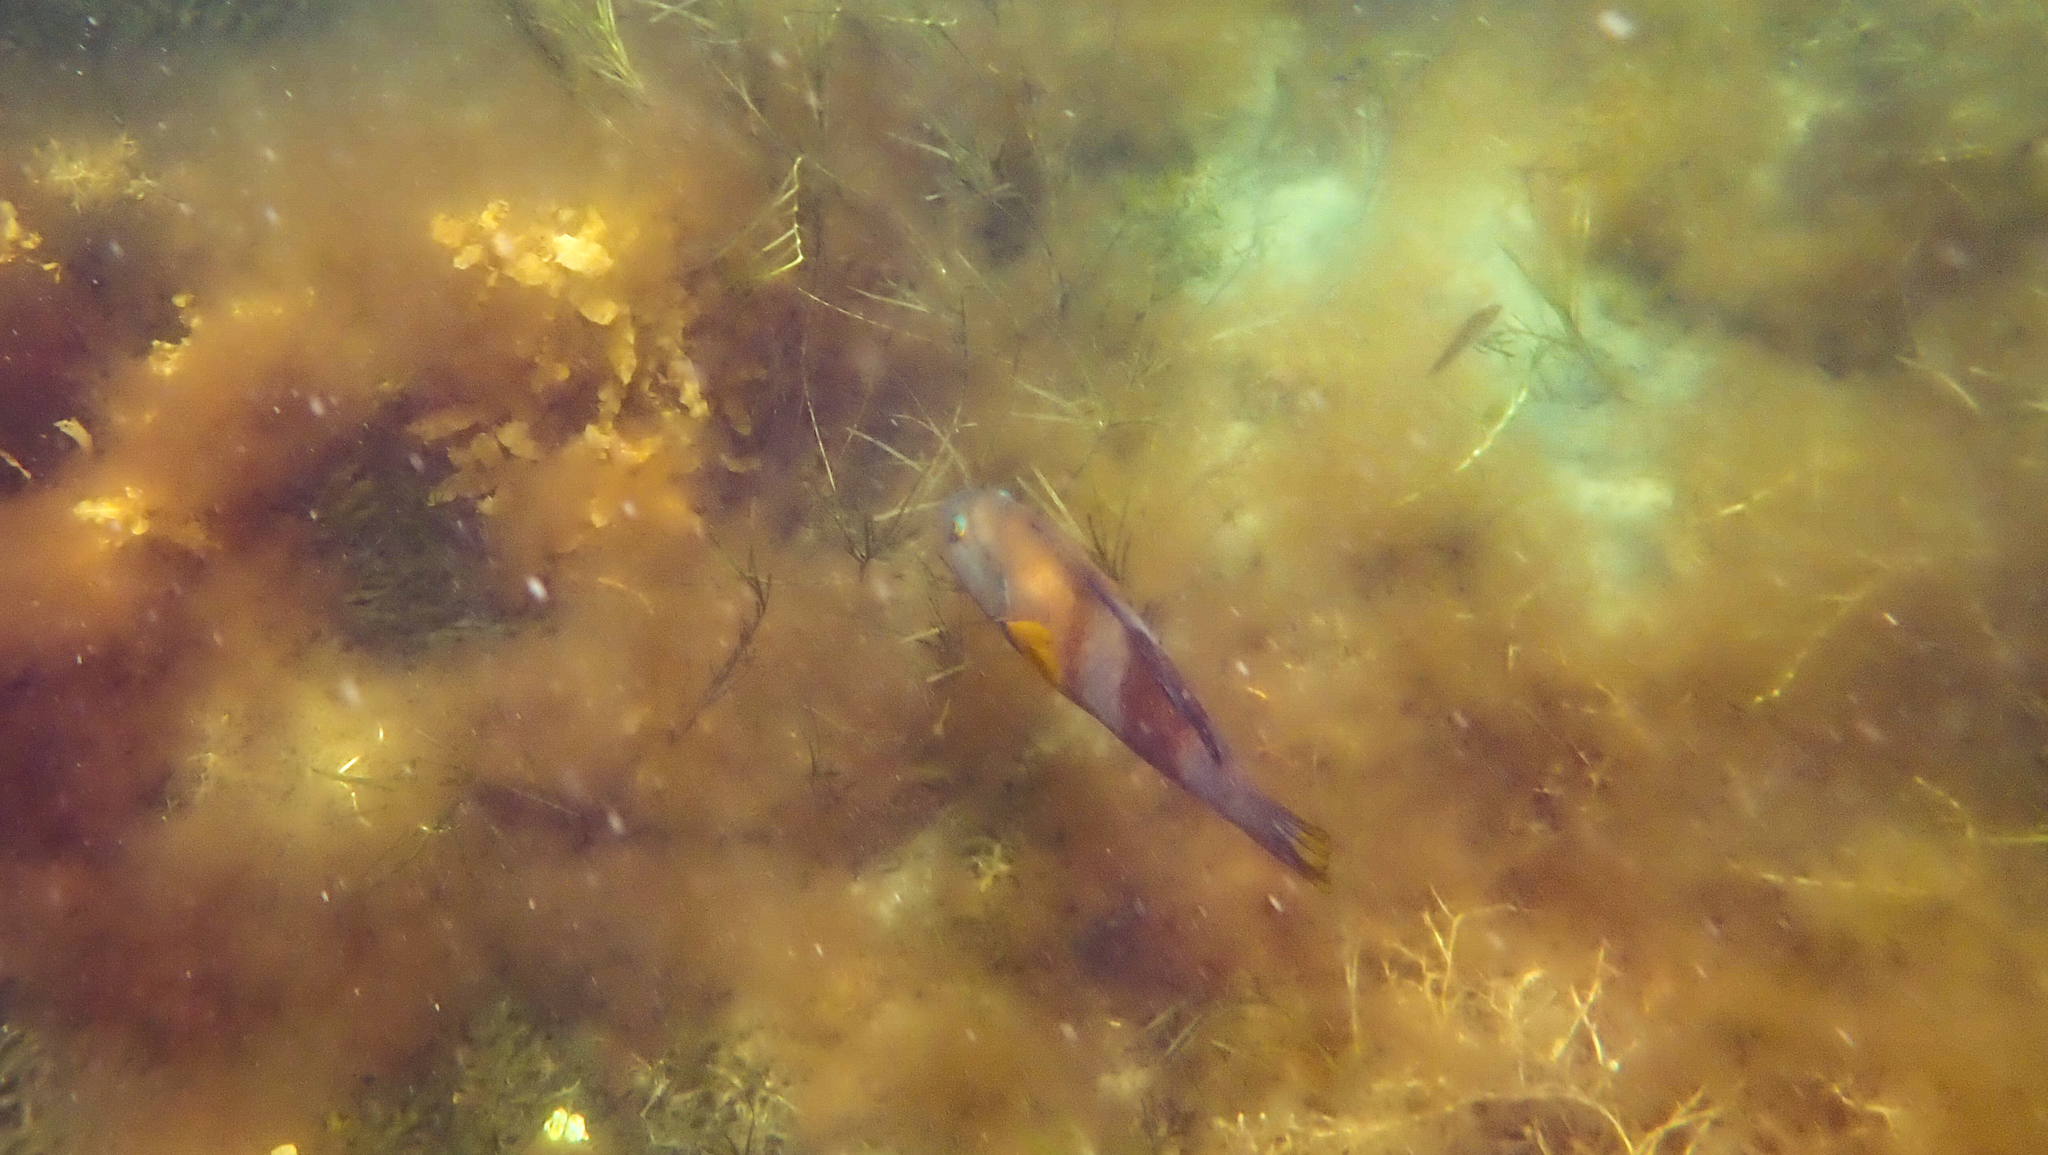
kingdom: Animalia
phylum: Chordata
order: Perciformes
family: Labridae
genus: Notolabrus
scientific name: Notolabrus tetricus
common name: Blue-throated parrotfish
